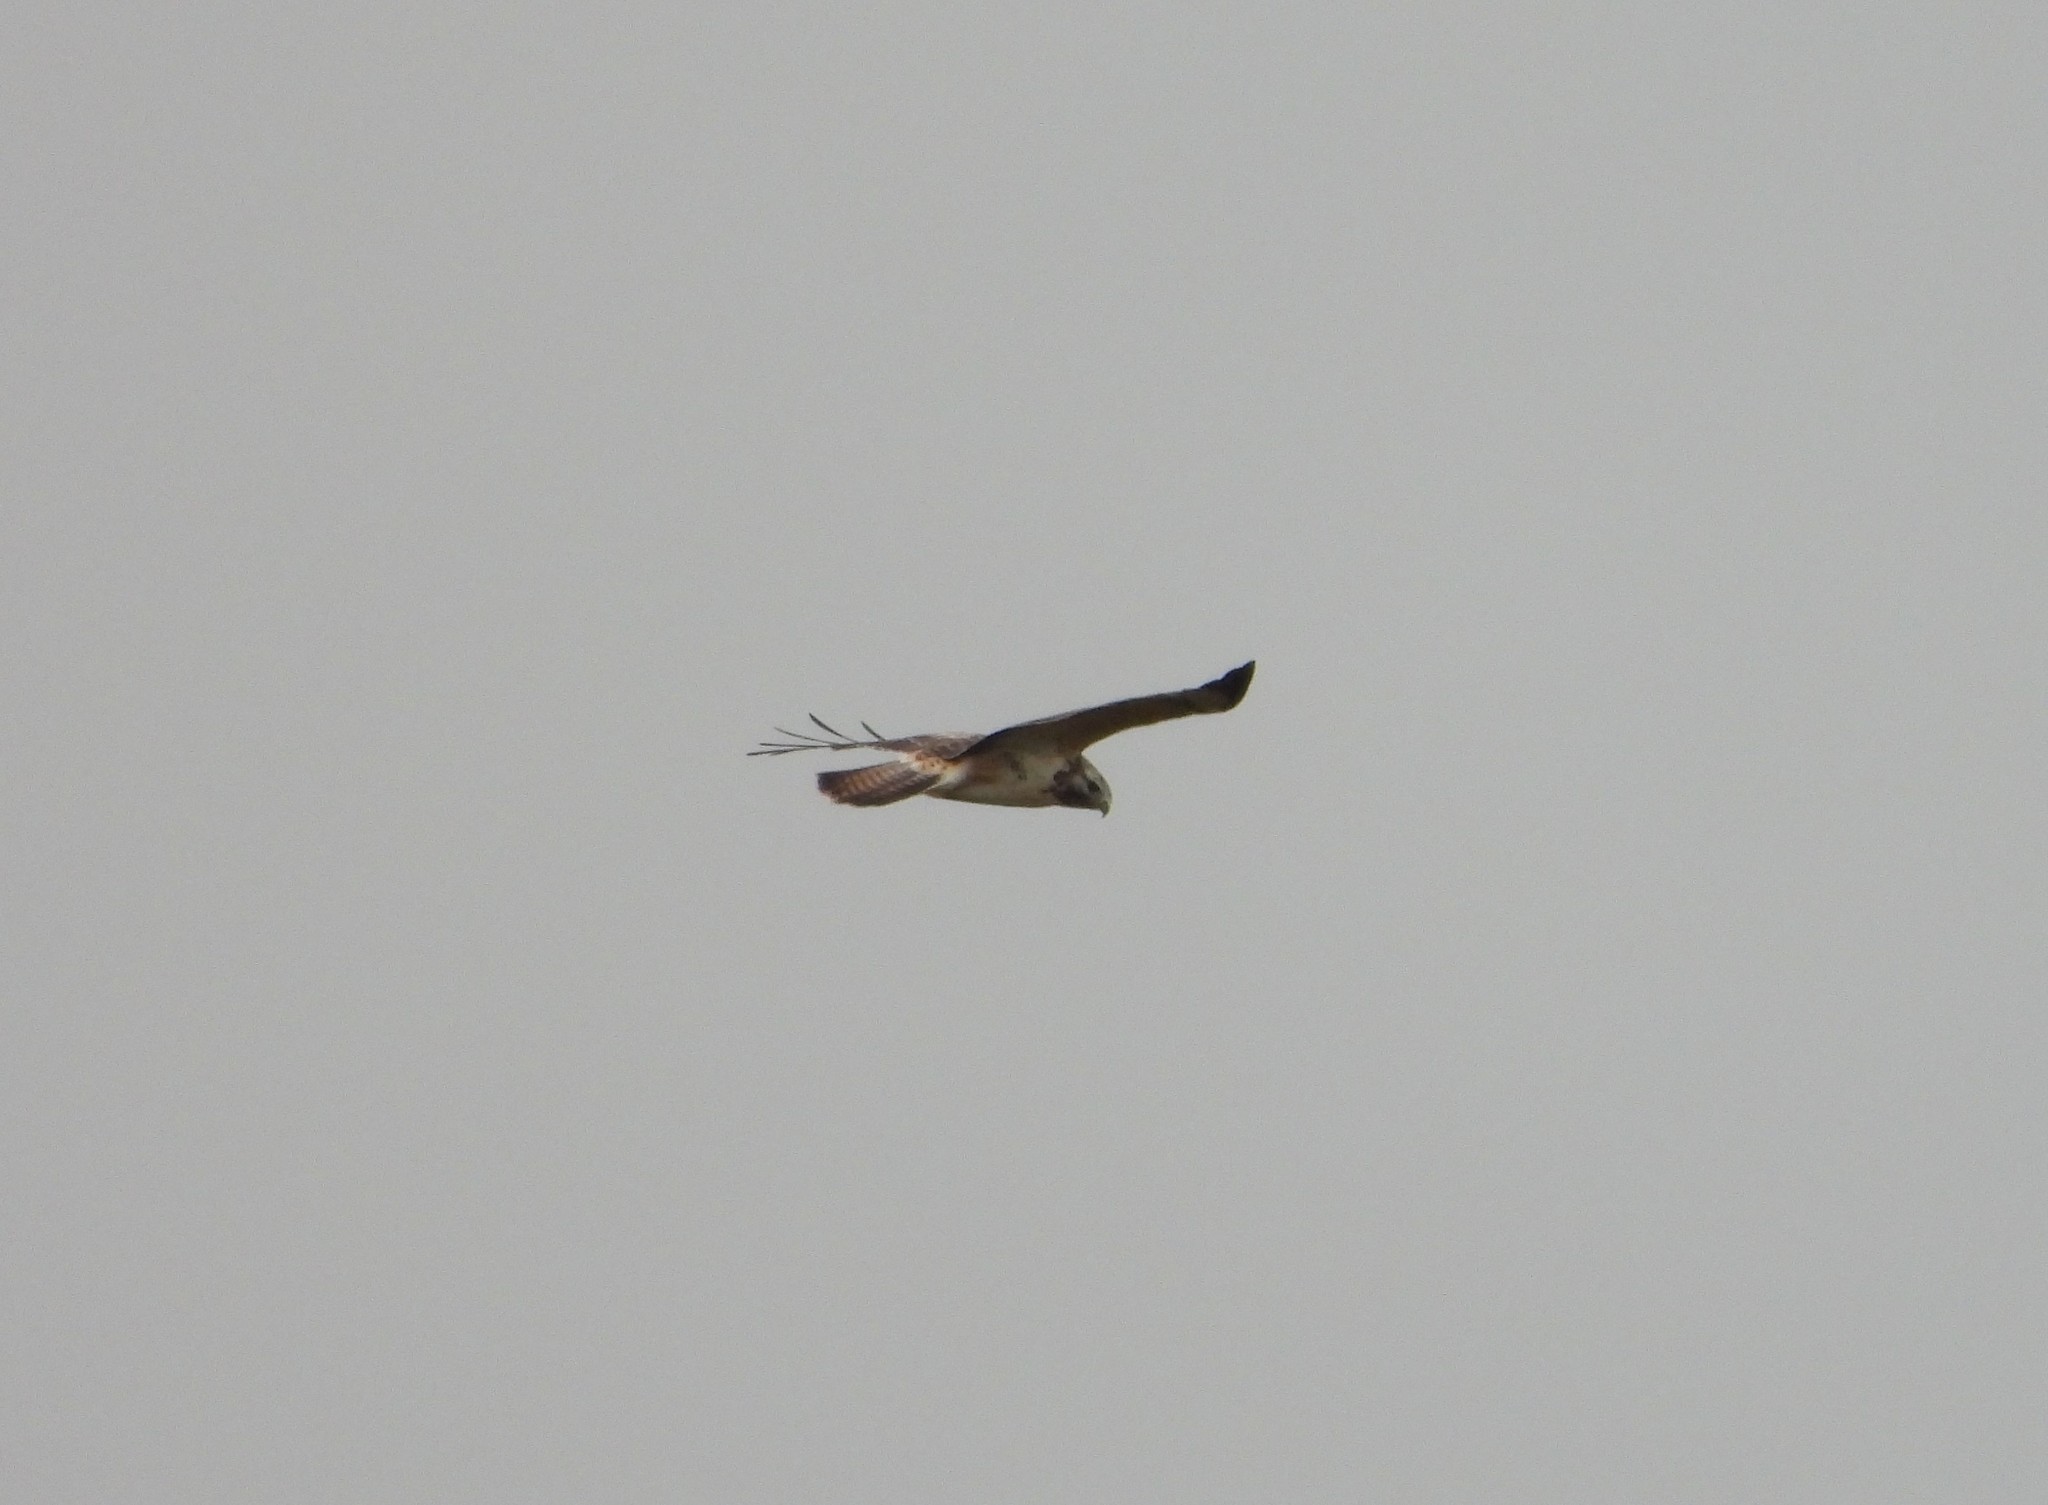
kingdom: Animalia
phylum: Chordata
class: Aves
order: Accipitriformes
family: Accipitridae
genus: Buteo
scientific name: Buteo buteo
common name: Common buzzard
